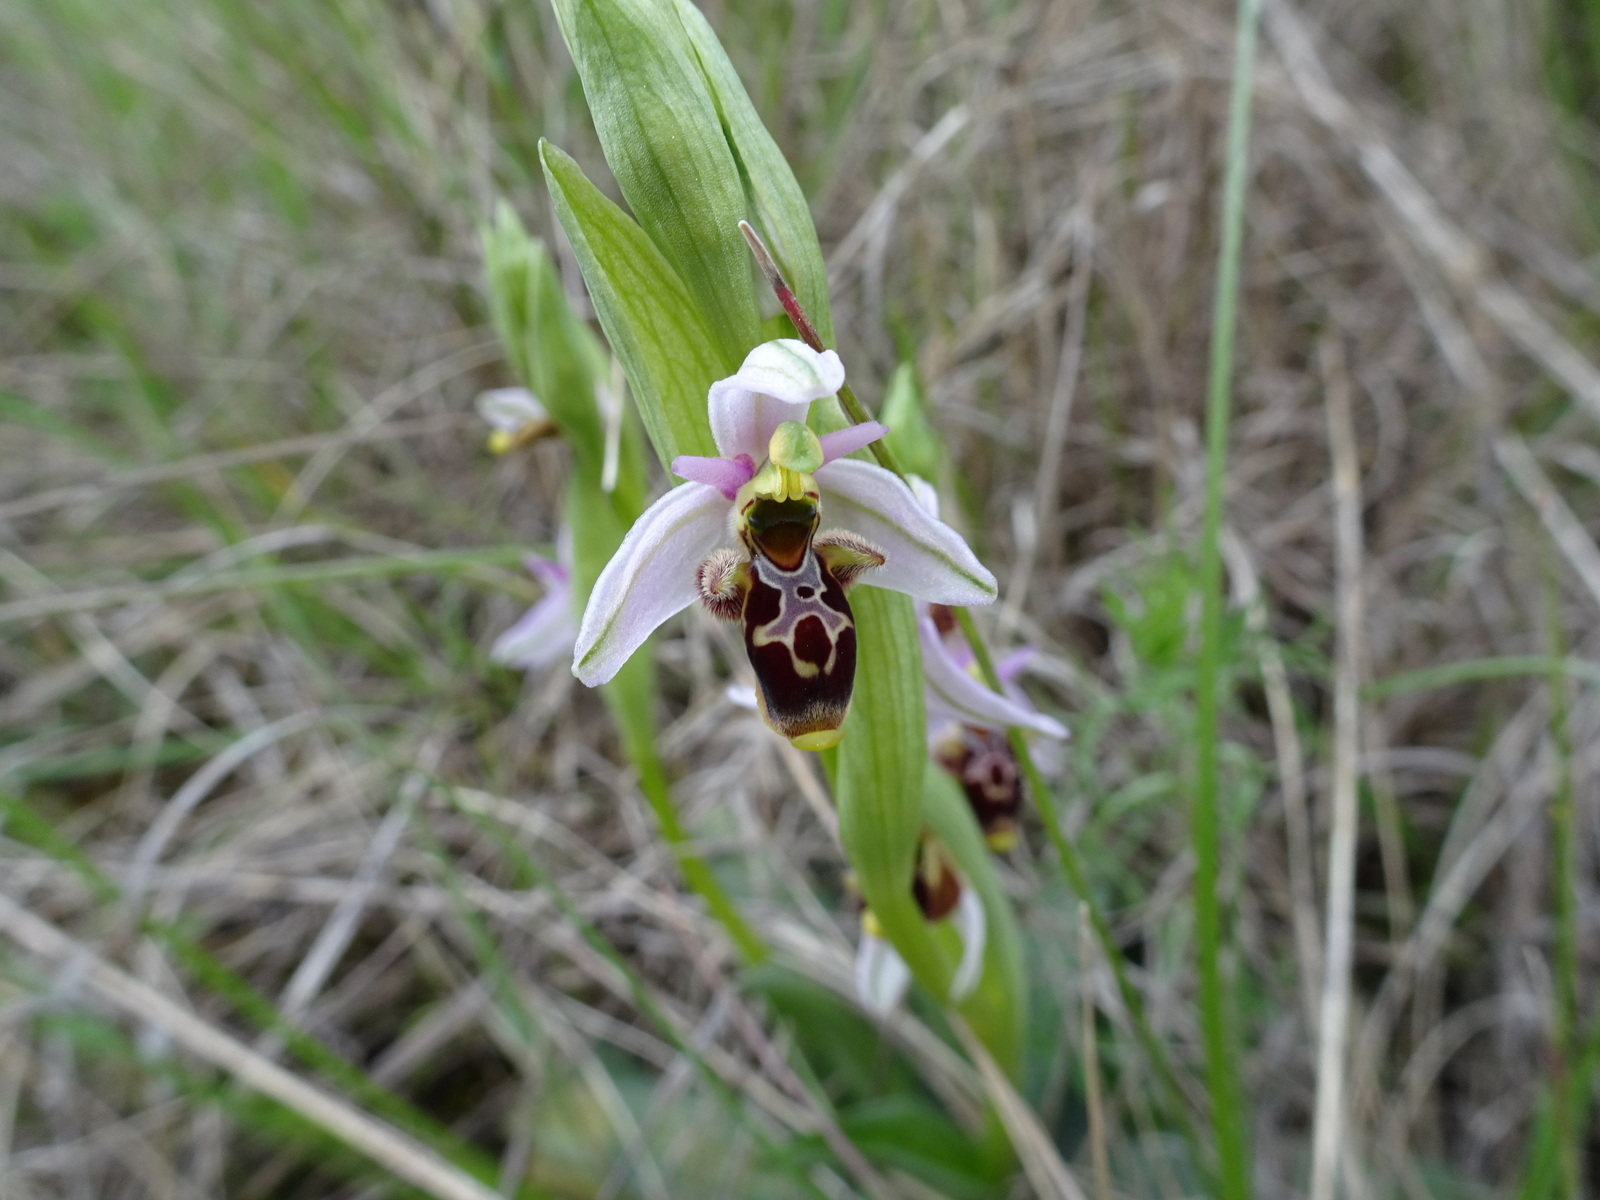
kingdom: Plantae
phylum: Tracheophyta
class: Liliopsida
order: Asparagales
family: Orchidaceae
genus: Ophrys
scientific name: Ophrys scolopax
